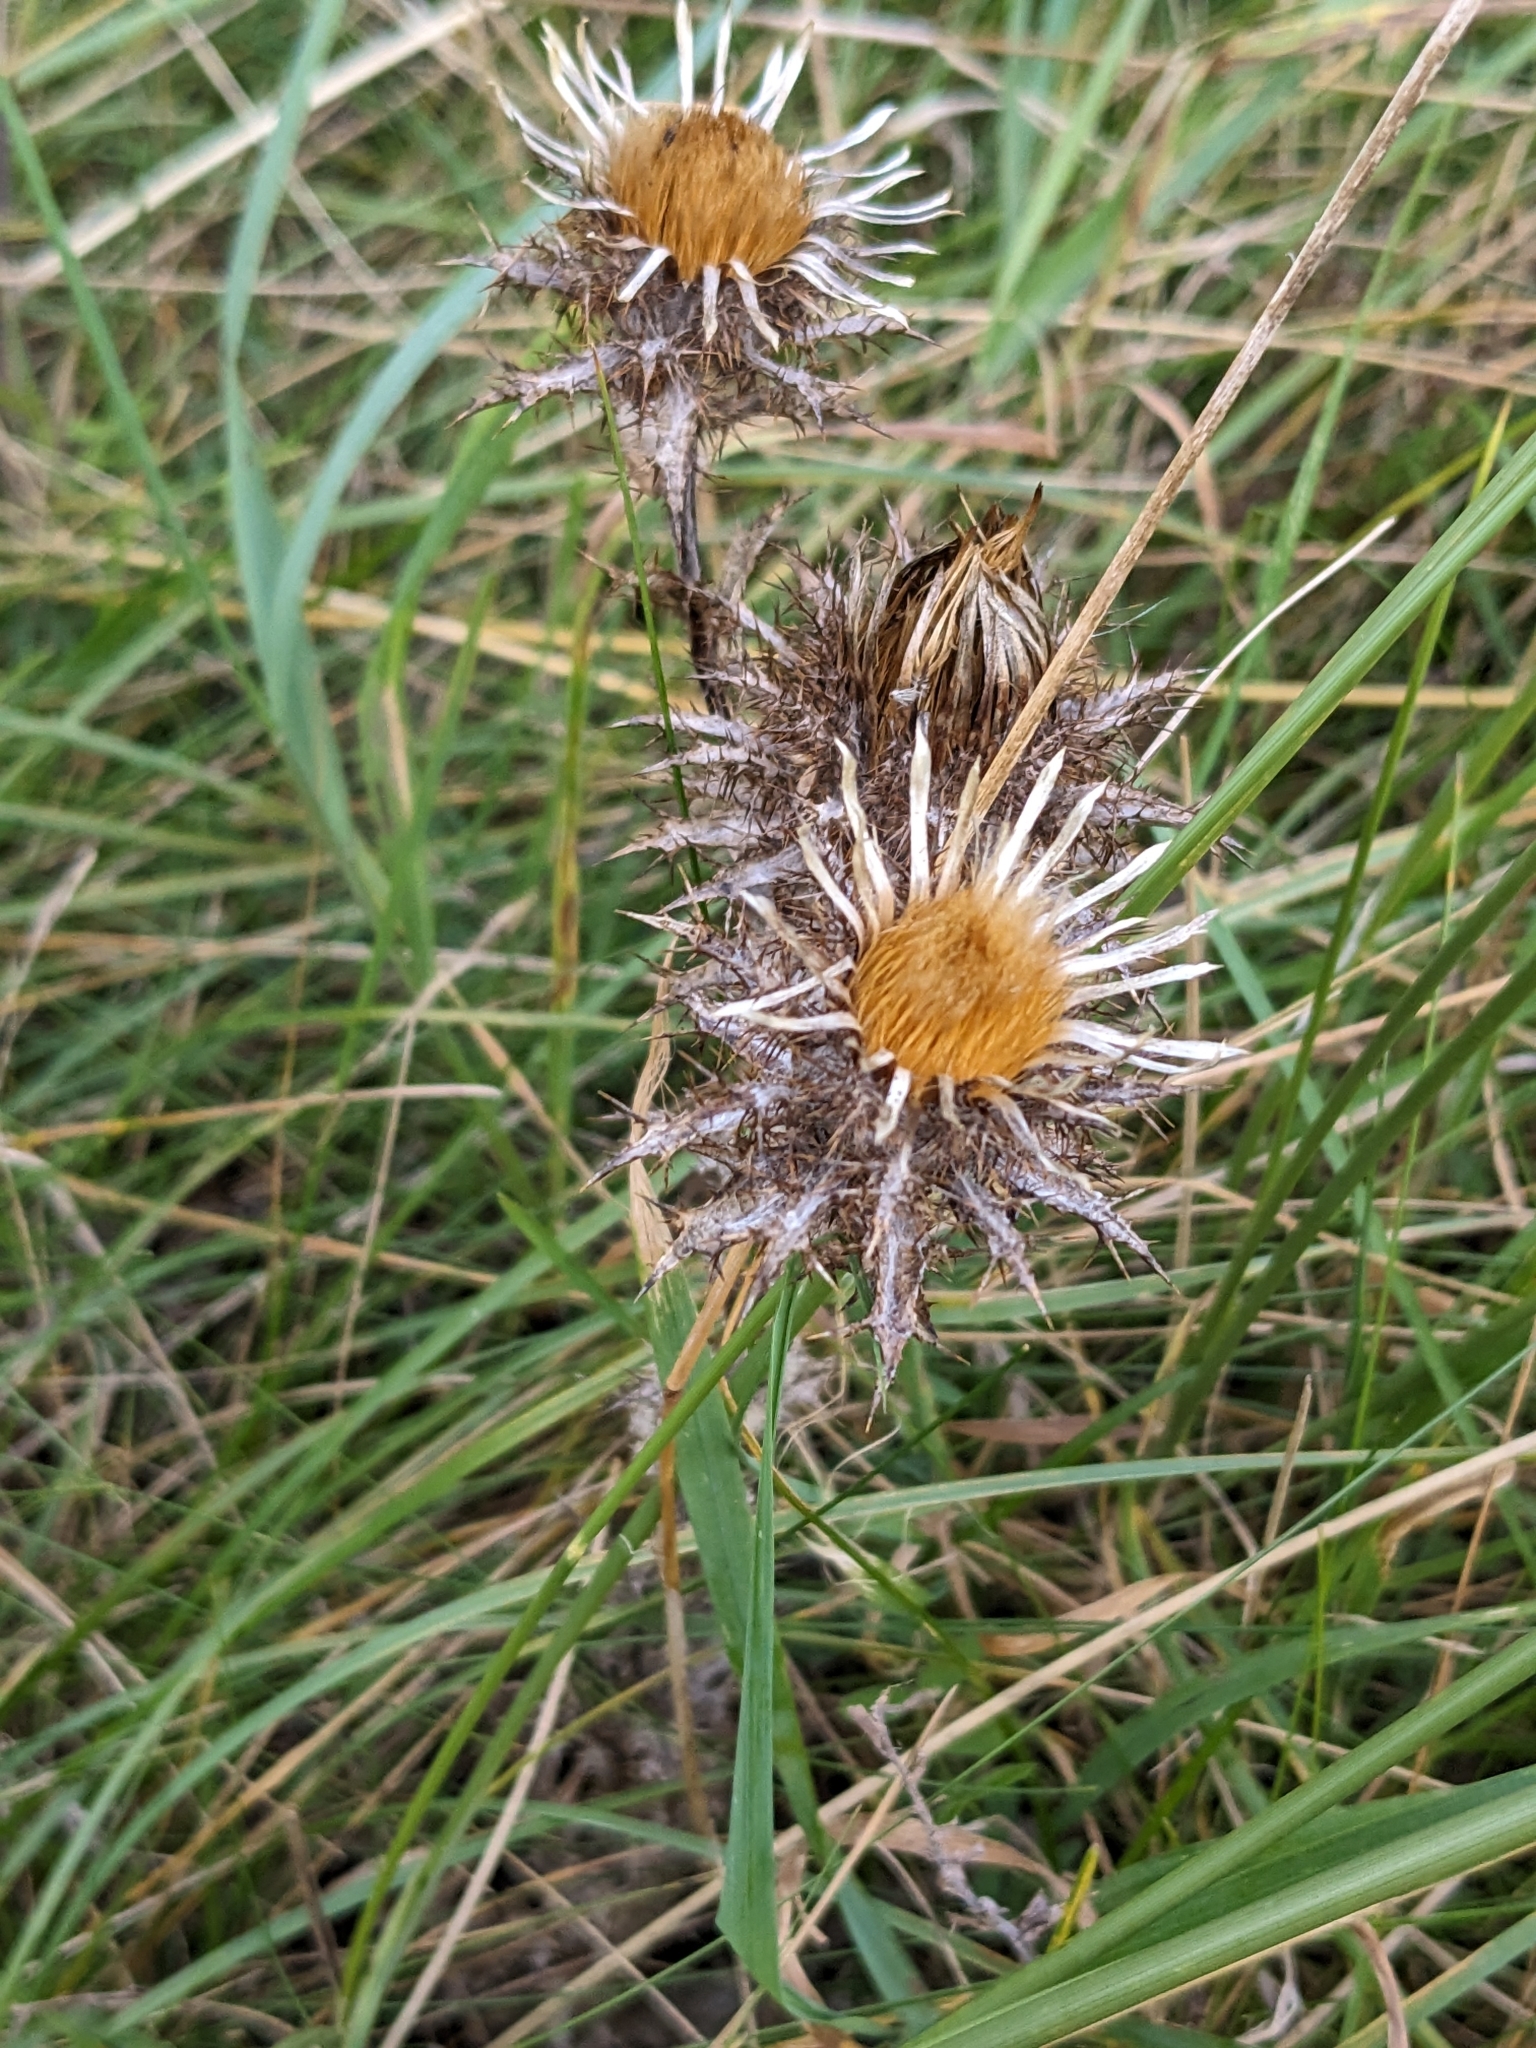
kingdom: Plantae
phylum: Tracheophyta
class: Magnoliopsida
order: Asterales
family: Asteraceae
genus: Carlina
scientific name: Carlina vulgaris
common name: Carline thistle
